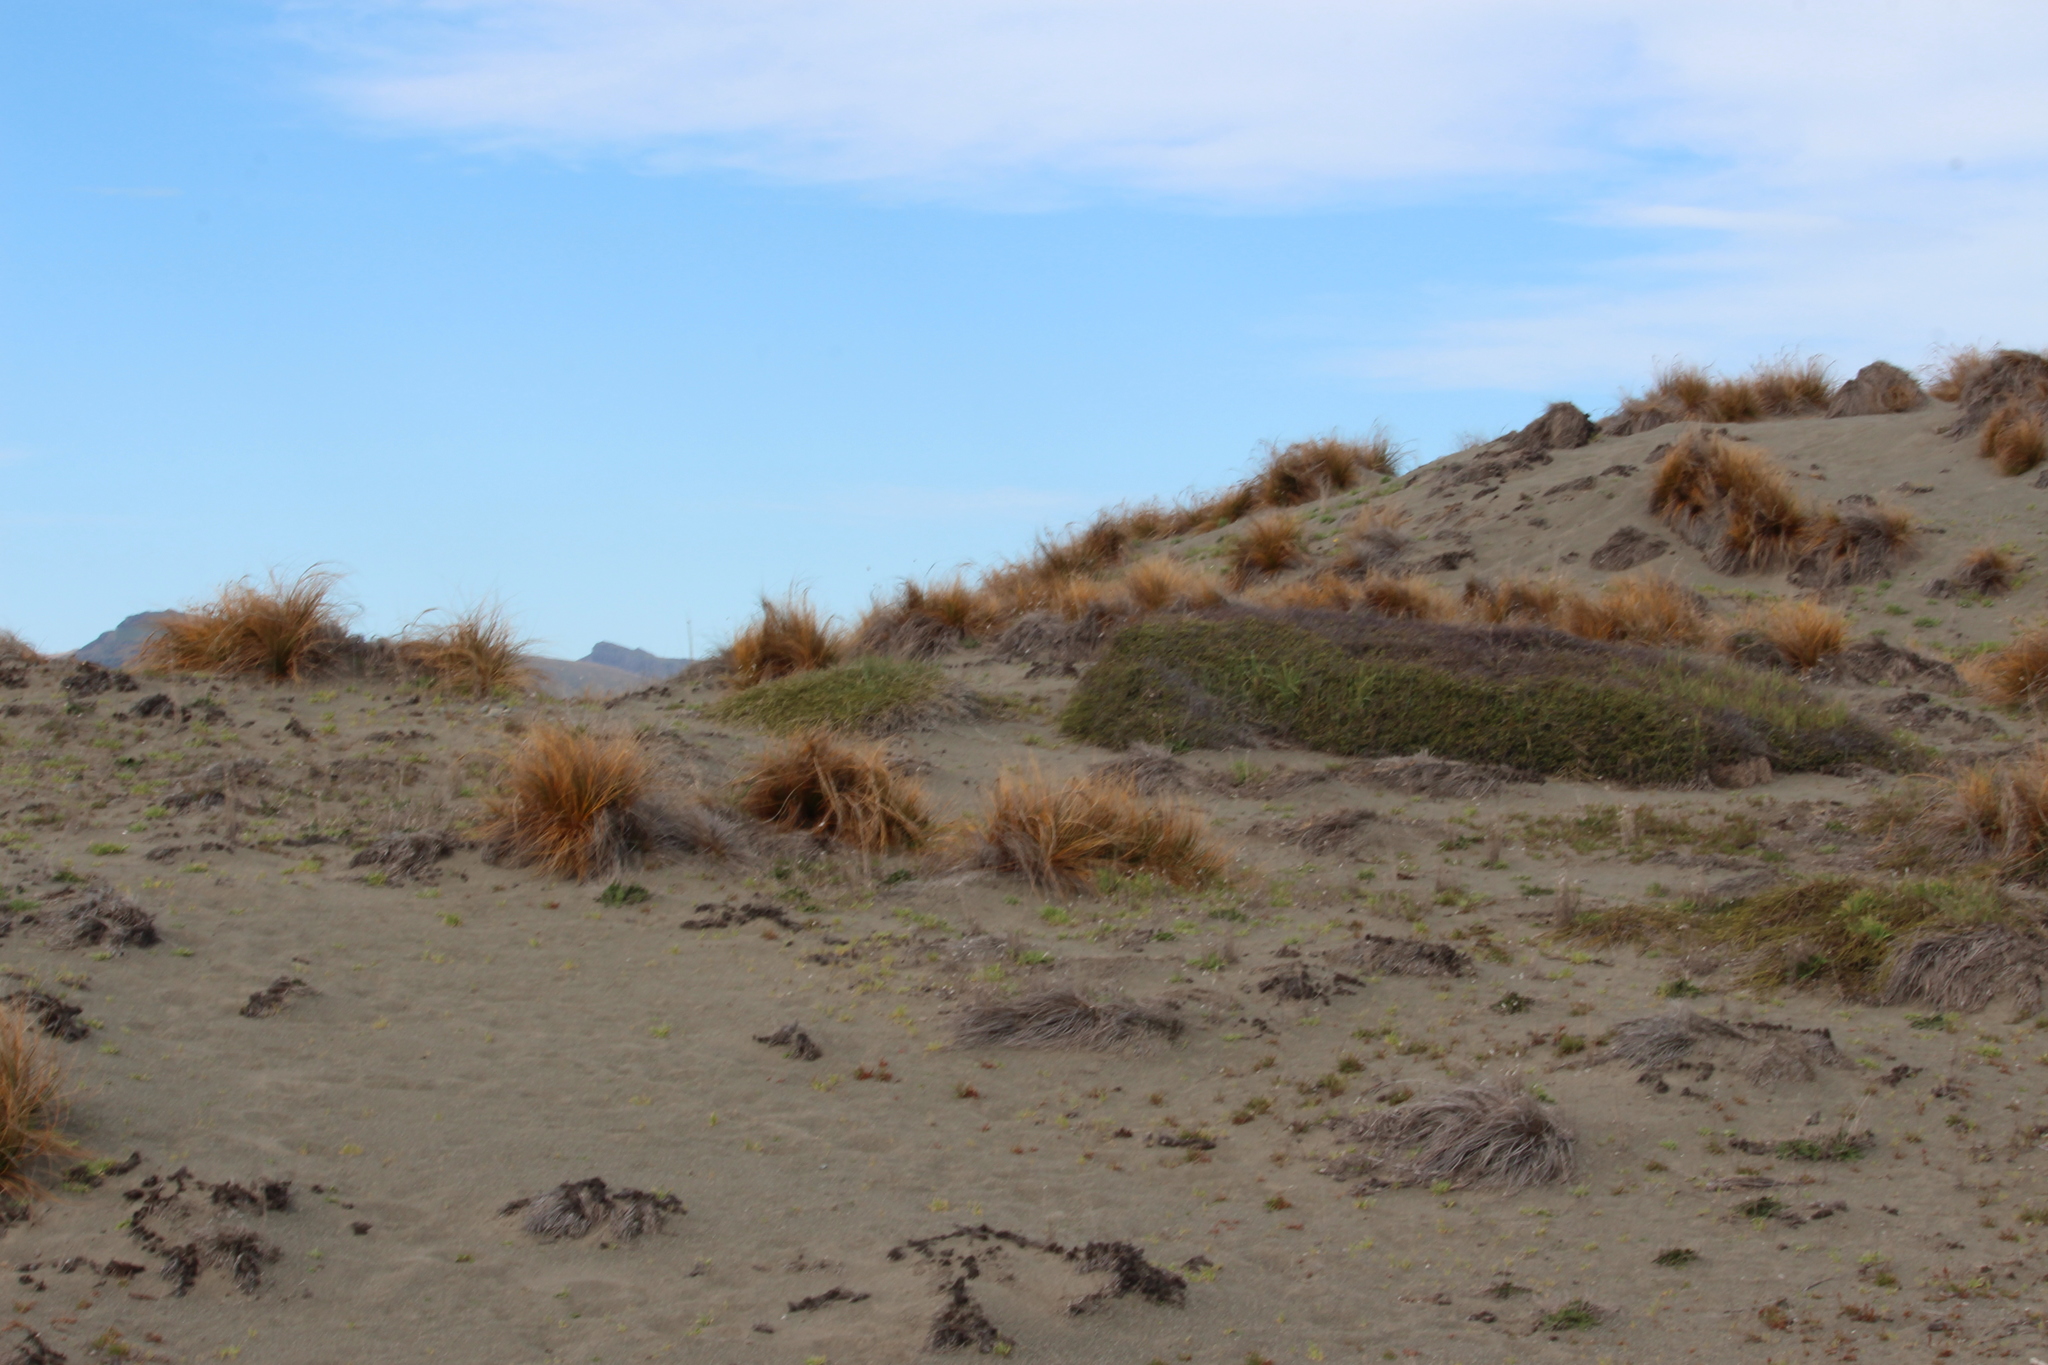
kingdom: Plantae
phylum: Tracheophyta
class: Magnoliopsida
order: Fabales
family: Fabaceae
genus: Carmichaelia
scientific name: Carmichaelia appressa
